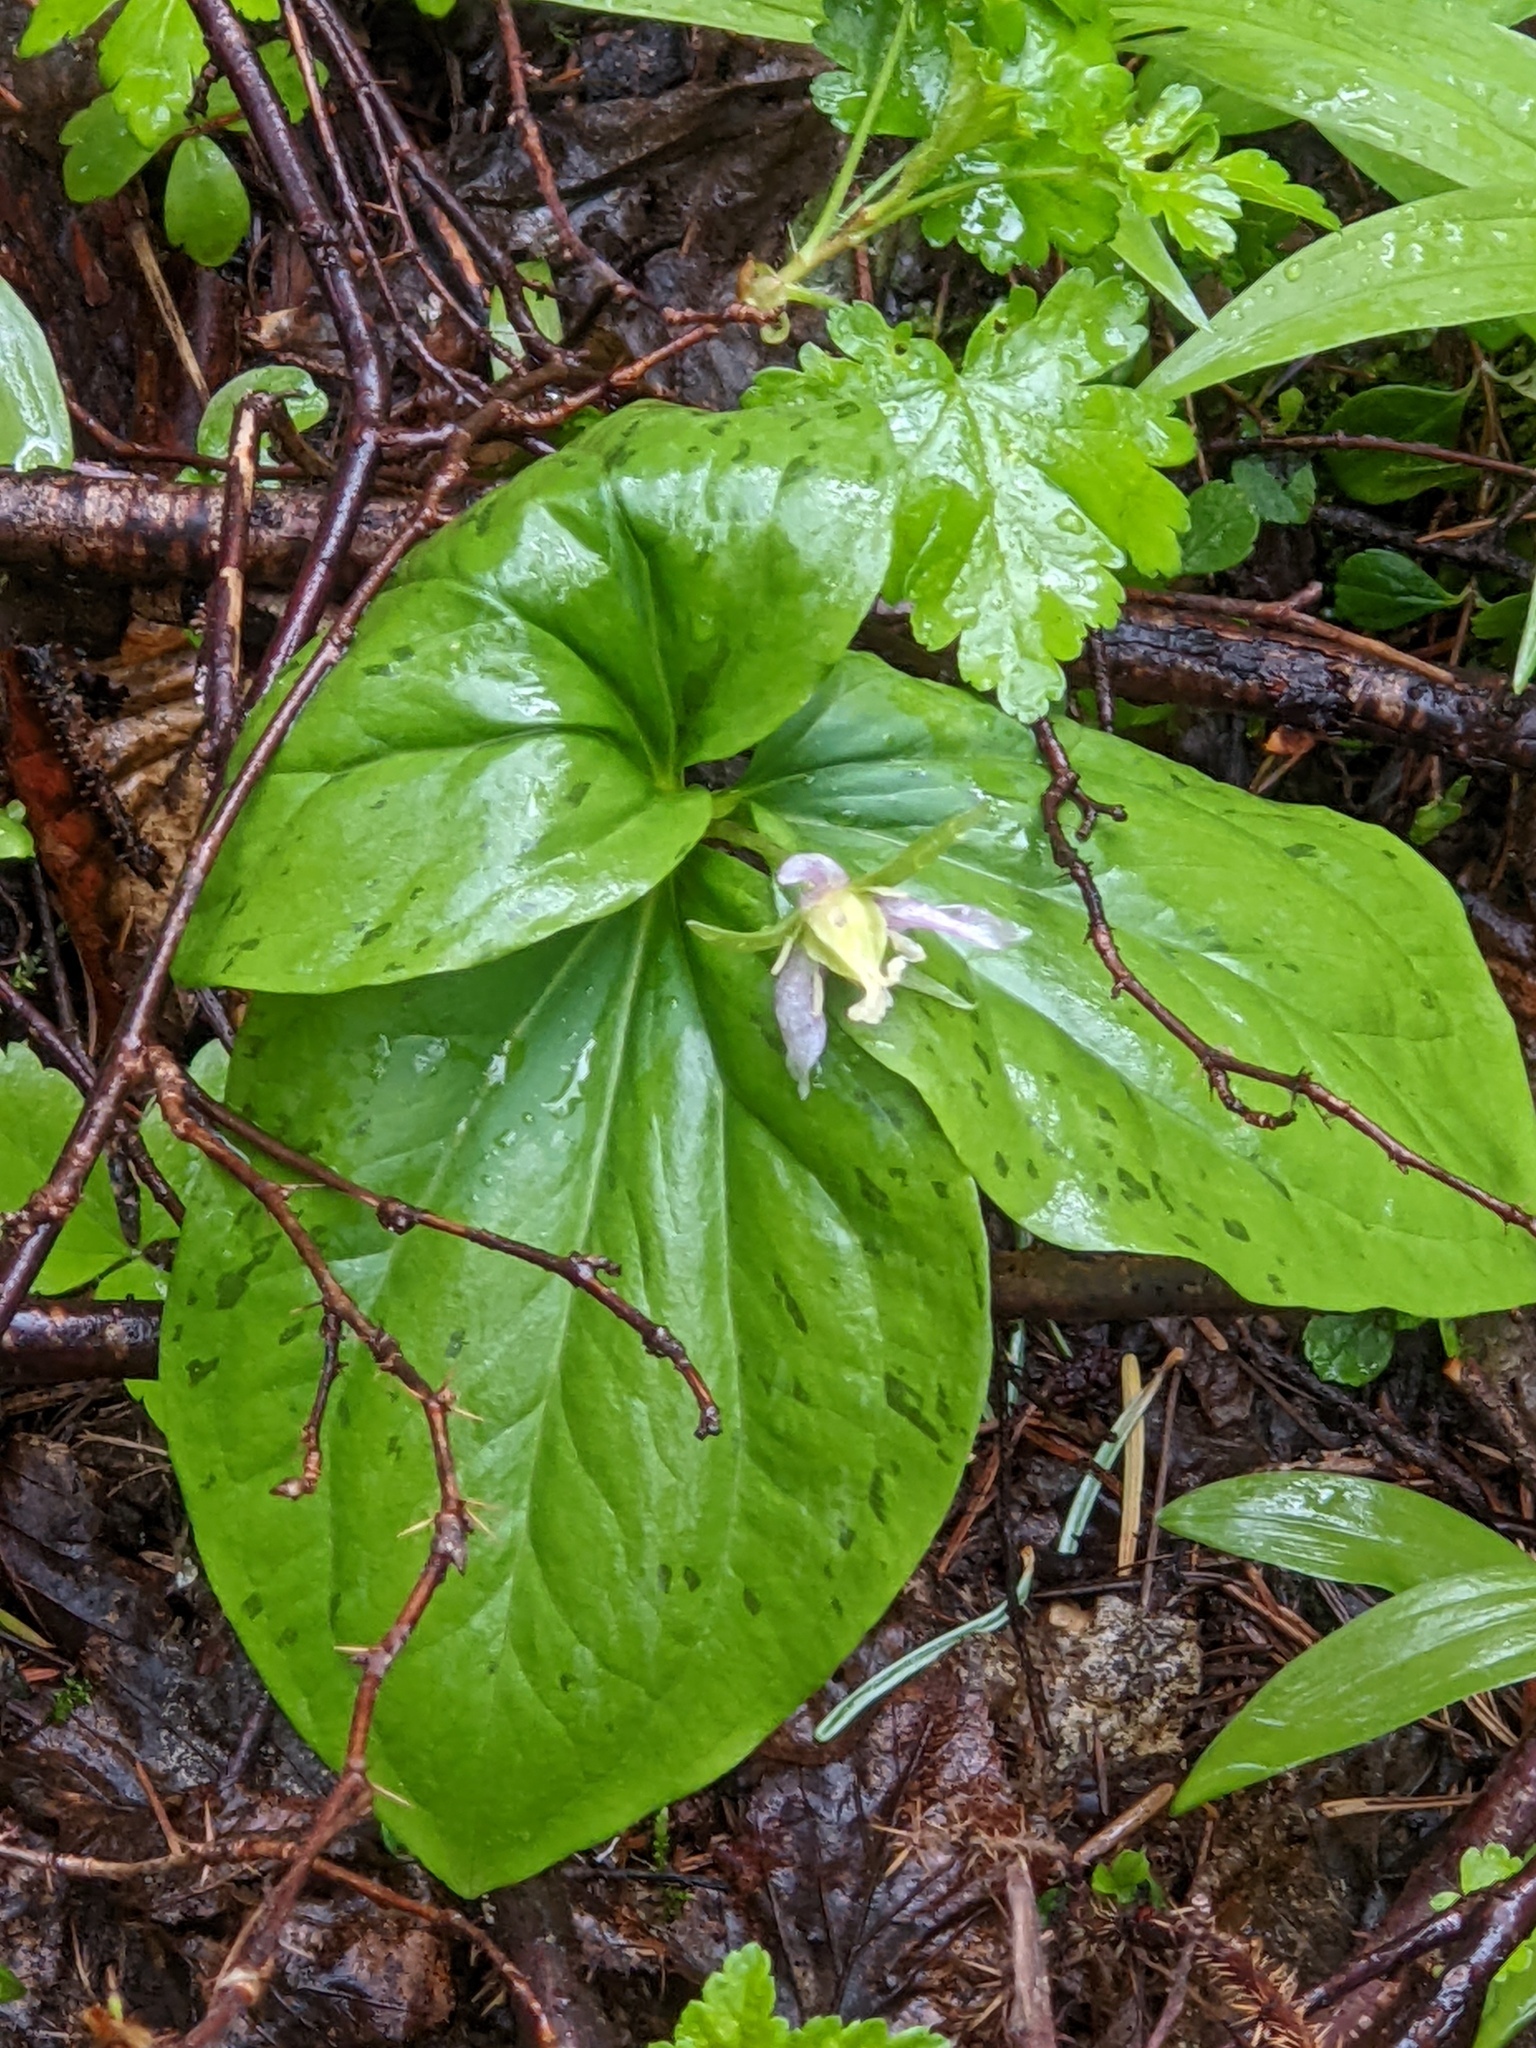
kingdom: Plantae
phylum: Tracheophyta
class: Liliopsida
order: Liliales
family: Melanthiaceae
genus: Trillium
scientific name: Trillium ovatum
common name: Pacific trillium
